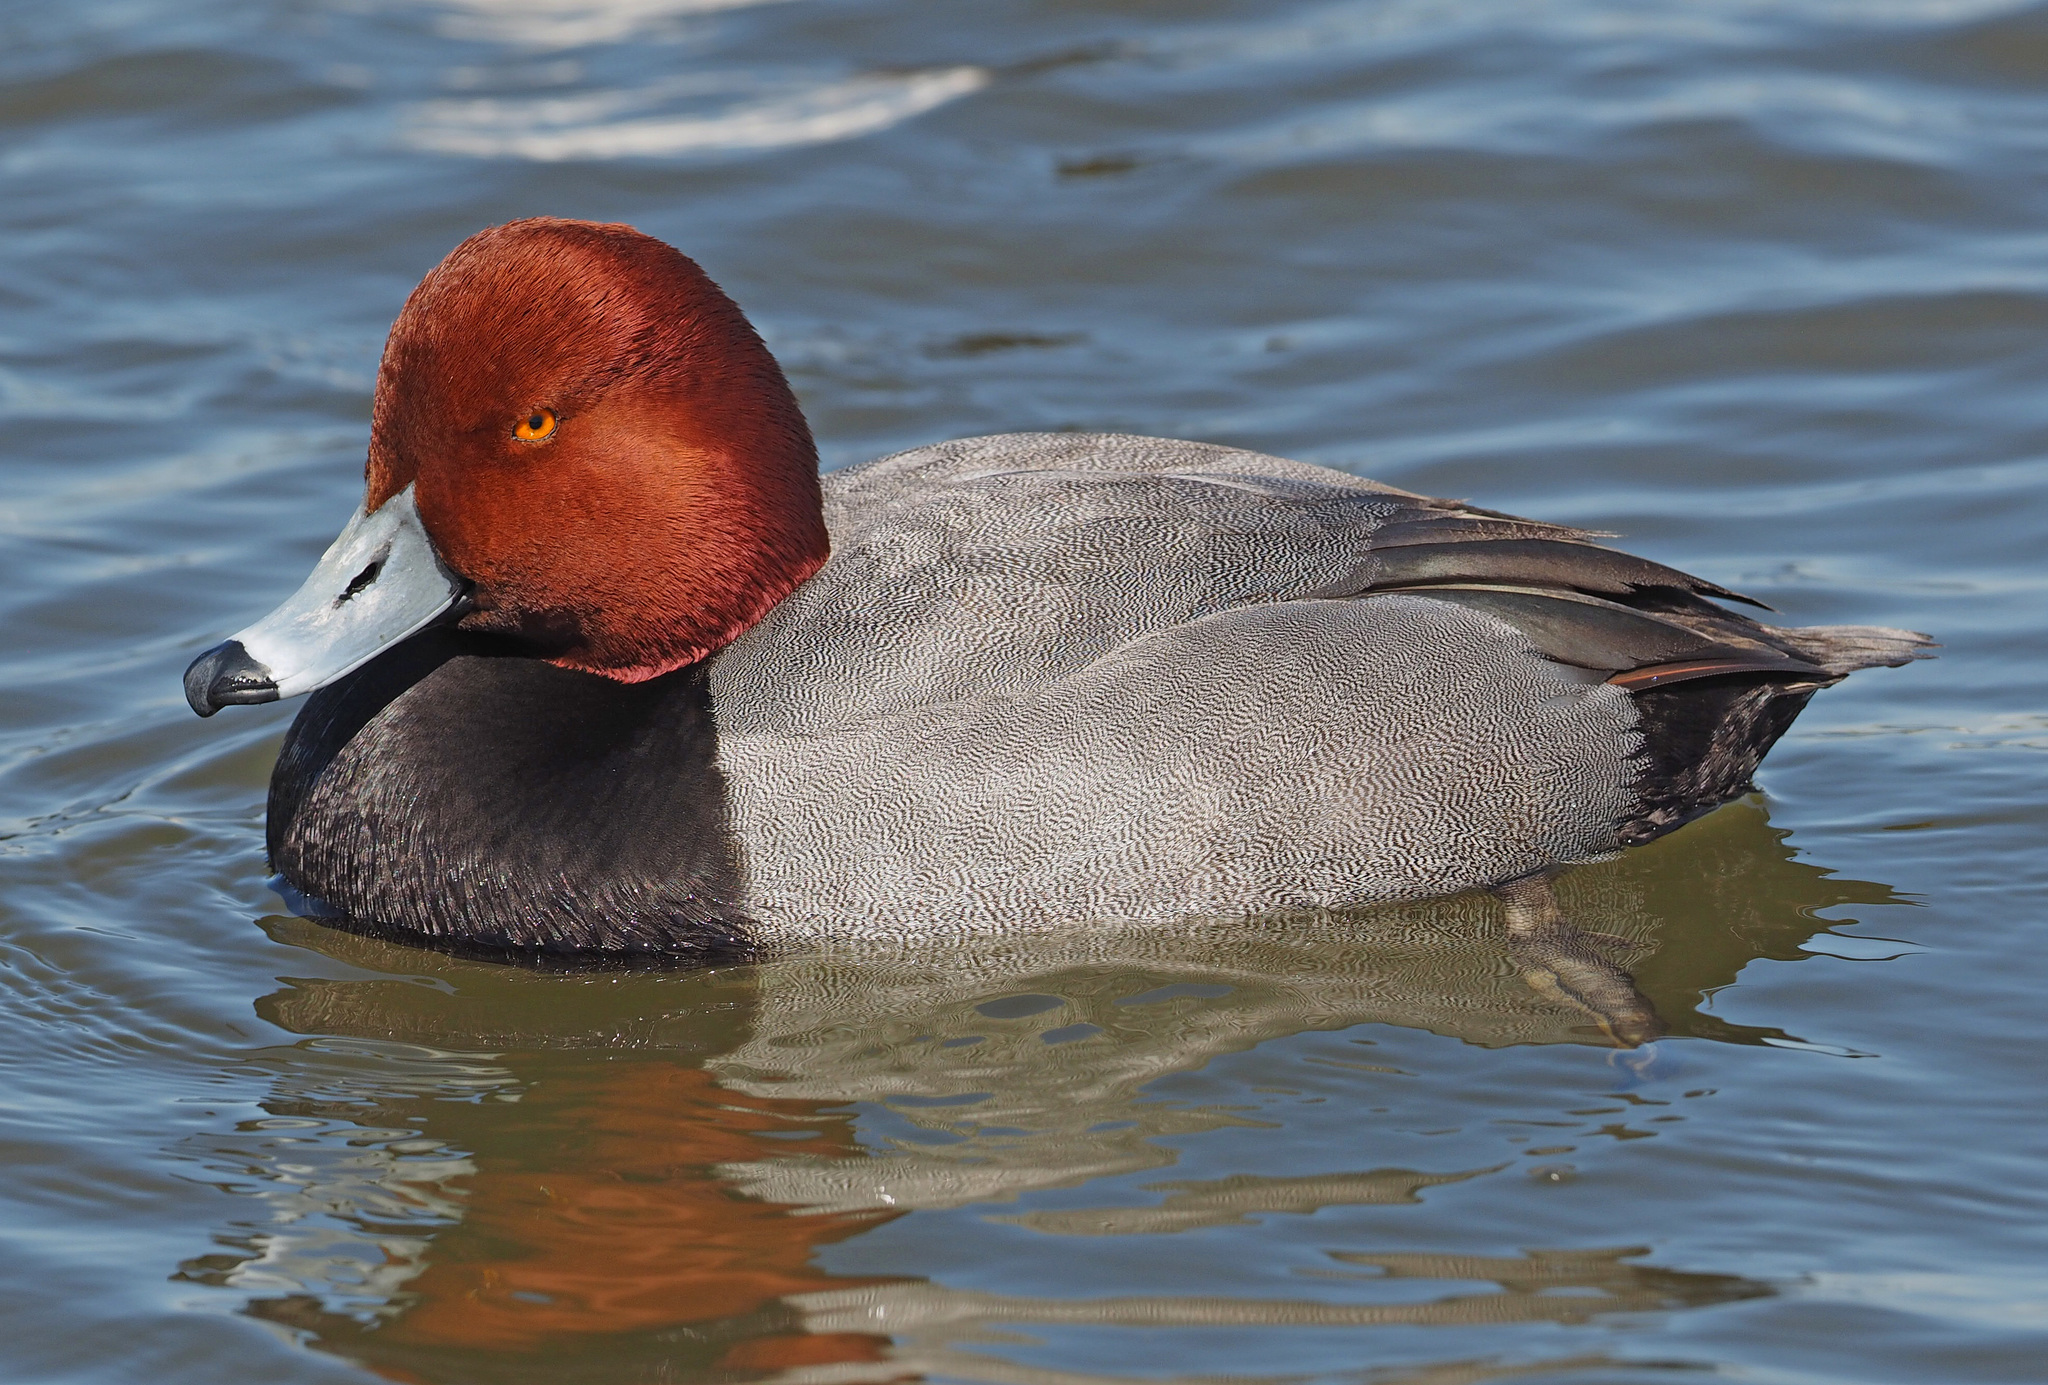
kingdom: Animalia
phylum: Chordata
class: Aves
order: Anseriformes
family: Anatidae
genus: Aythya
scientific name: Aythya americana
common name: Redhead
